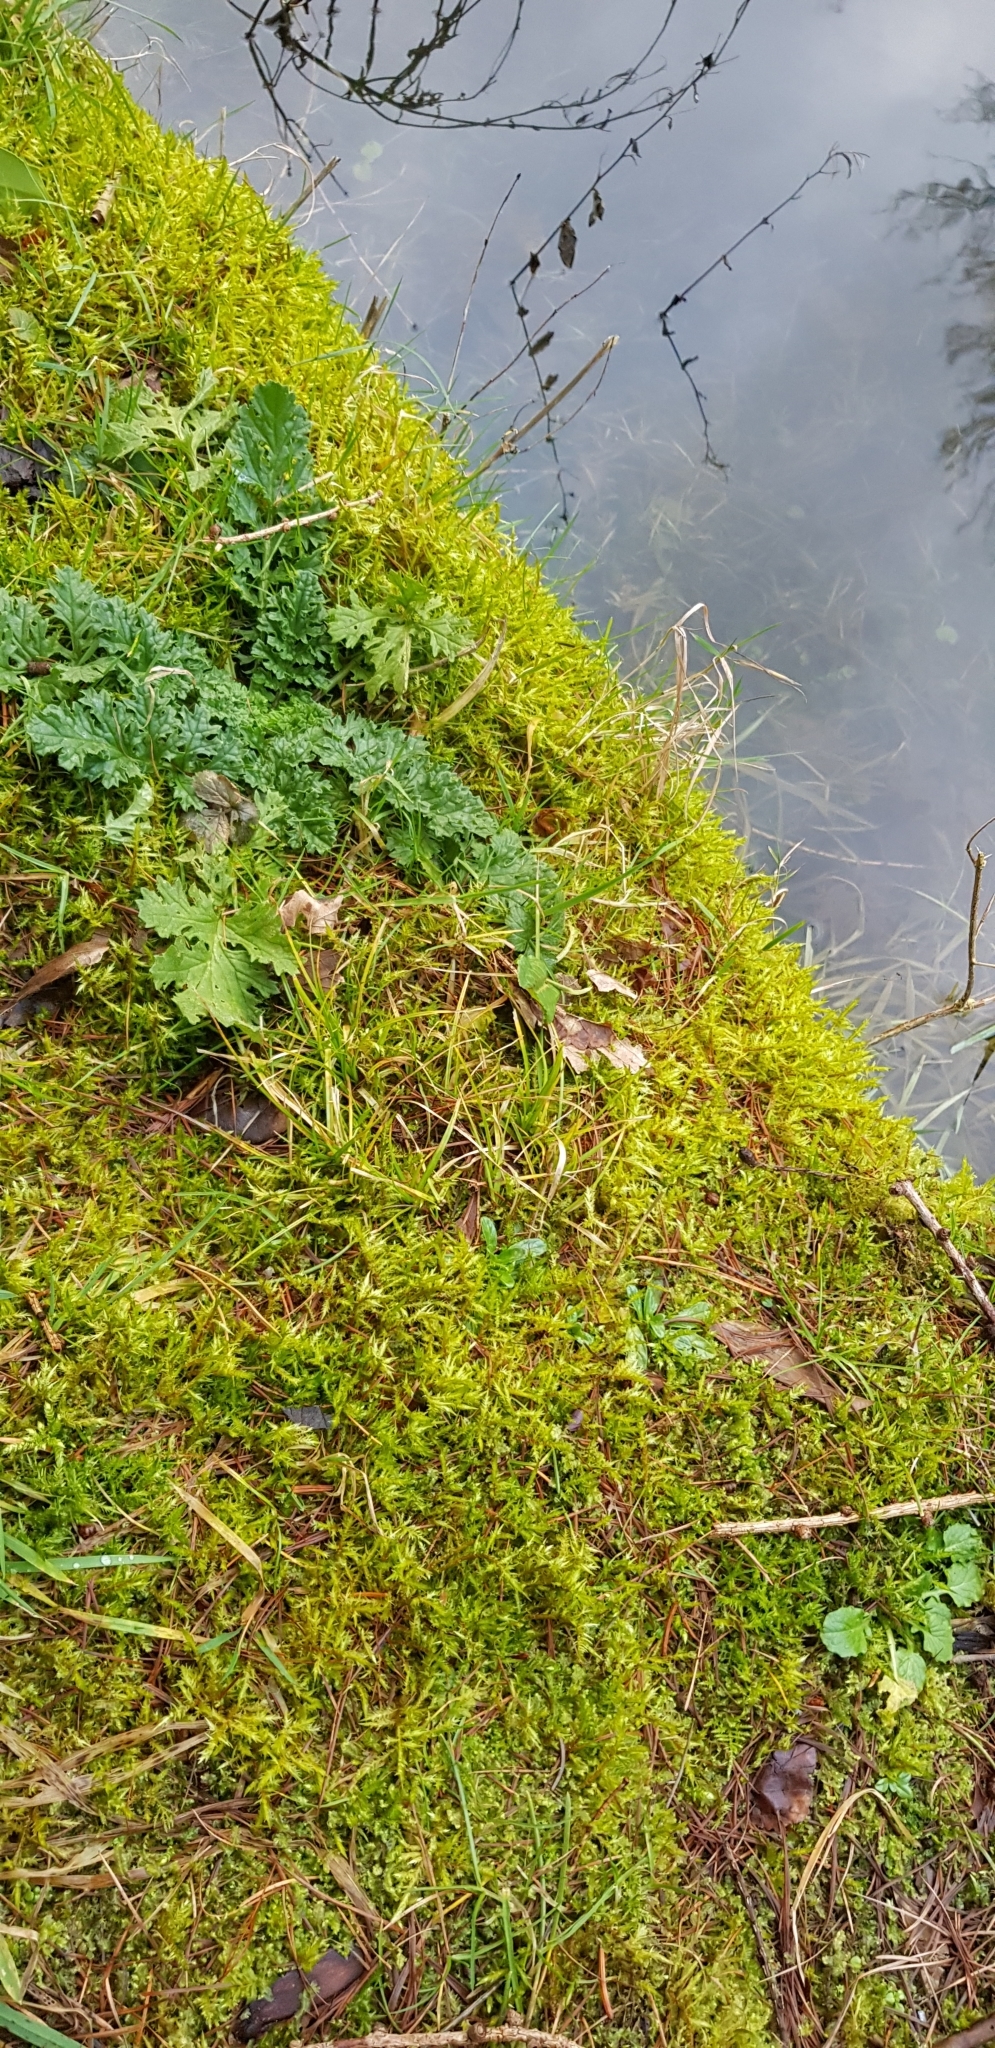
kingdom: Plantae
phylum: Bryophyta
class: Bryopsida
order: Hypnales
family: Pylaisiaceae
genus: Calliergonella
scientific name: Calliergonella cuspidata
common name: Common large wetland moss
